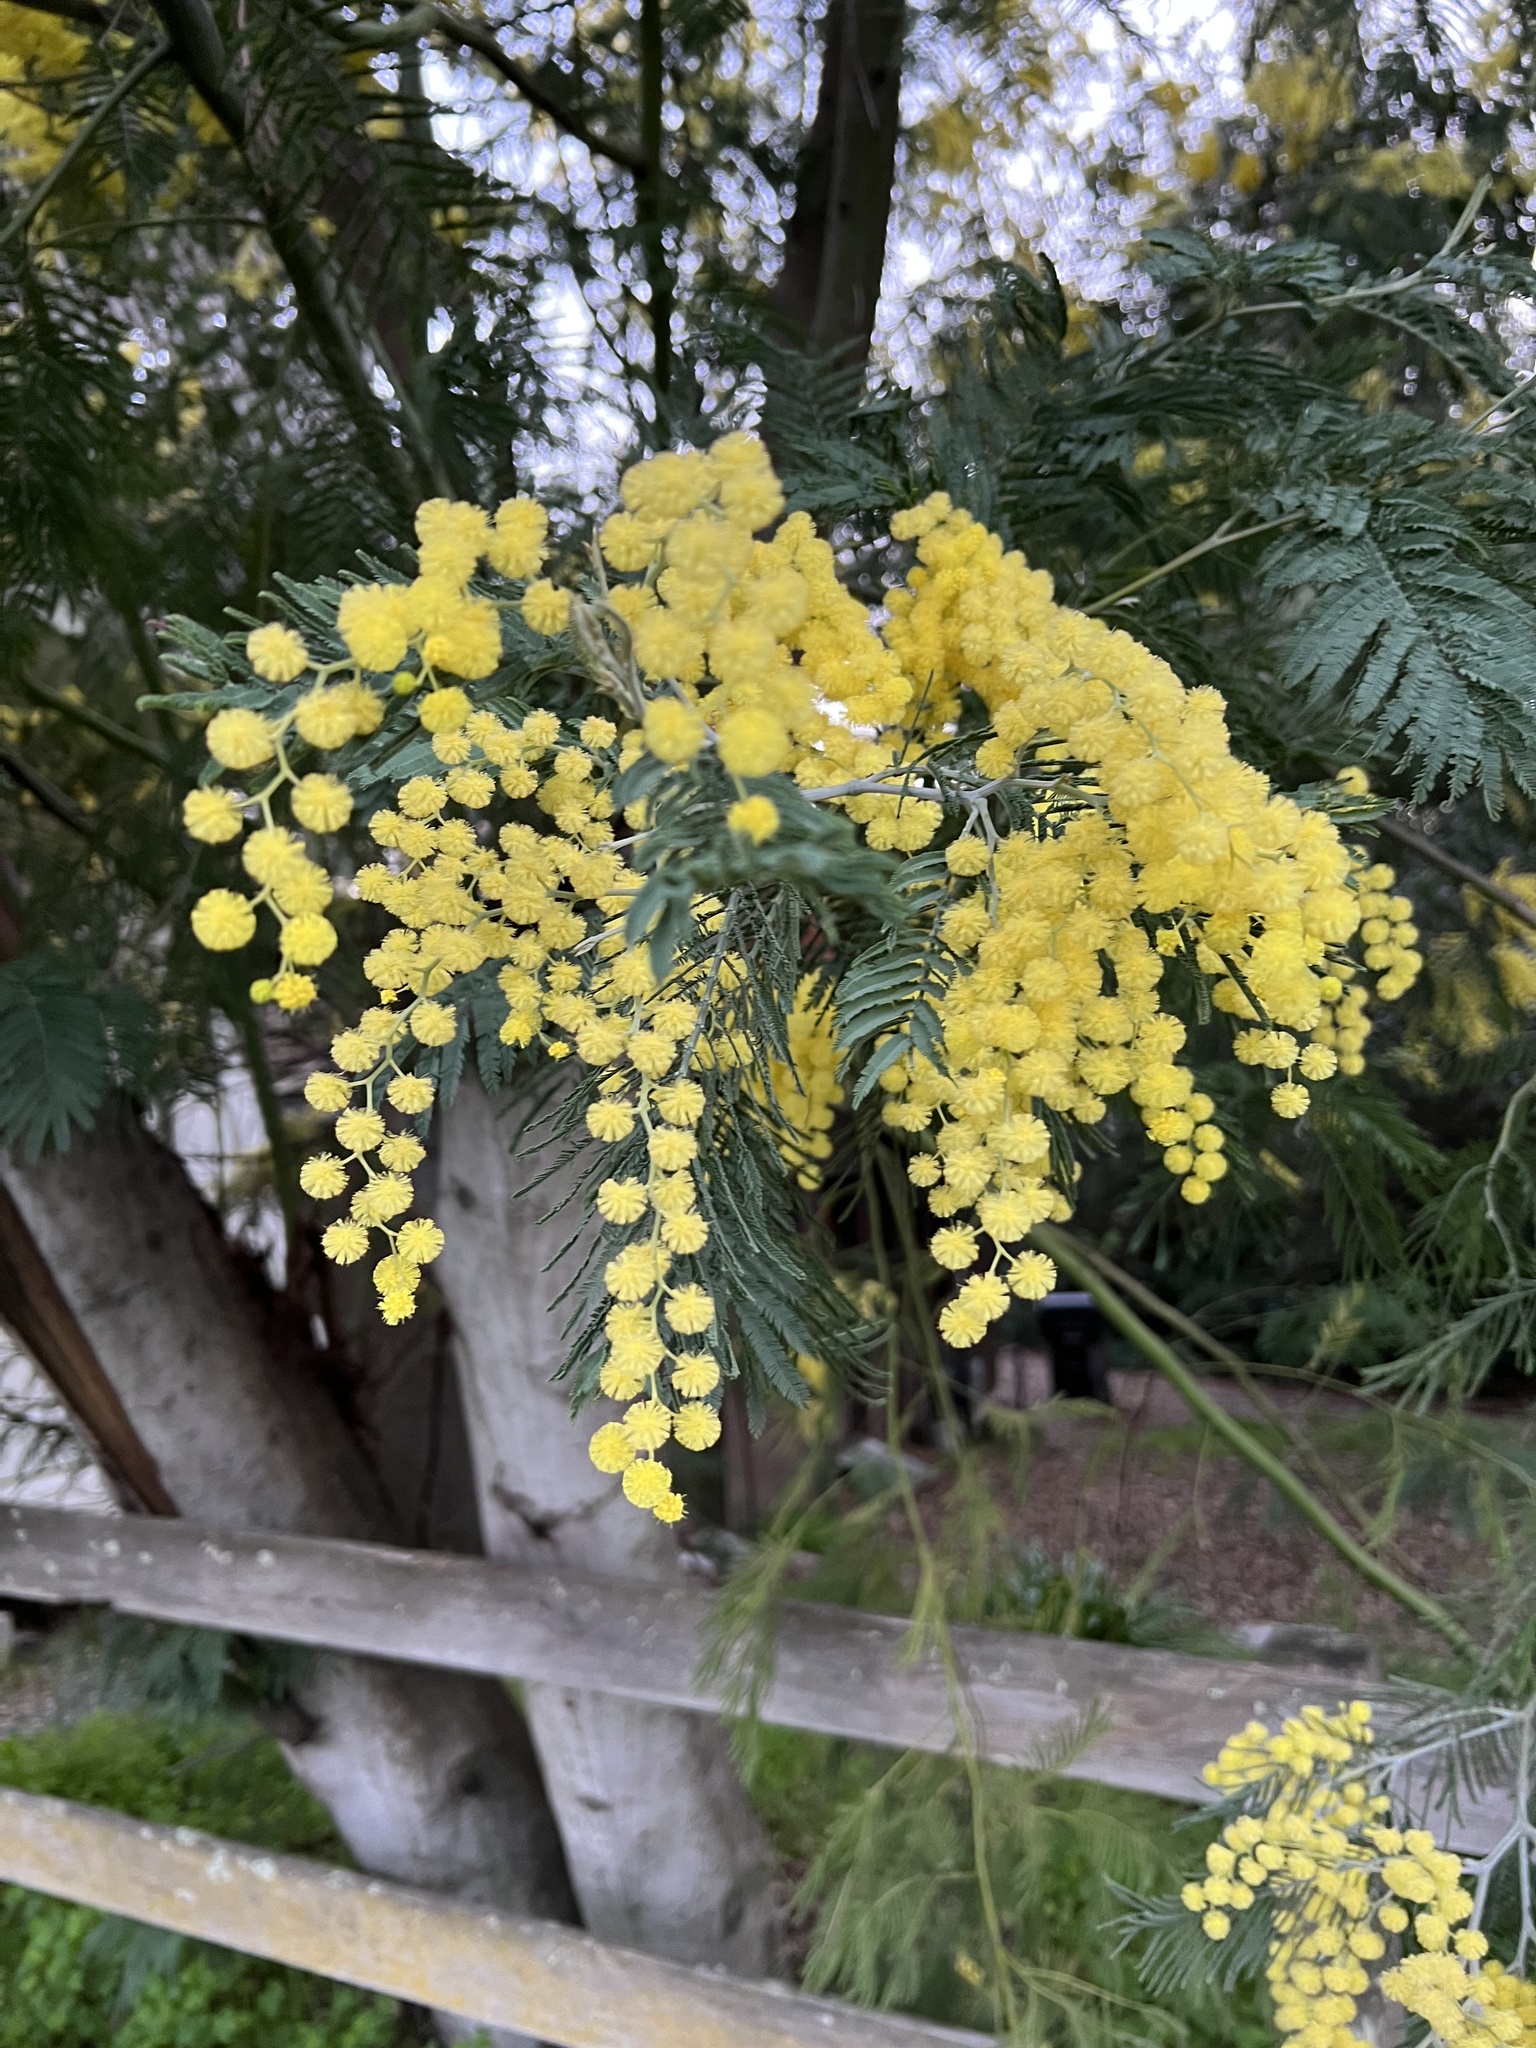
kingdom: Plantae
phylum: Tracheophyta
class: Magnoliopsida
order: Fabales
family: Fabaceae
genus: Acacia
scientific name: Acacia dealbata
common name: Silver wattle
